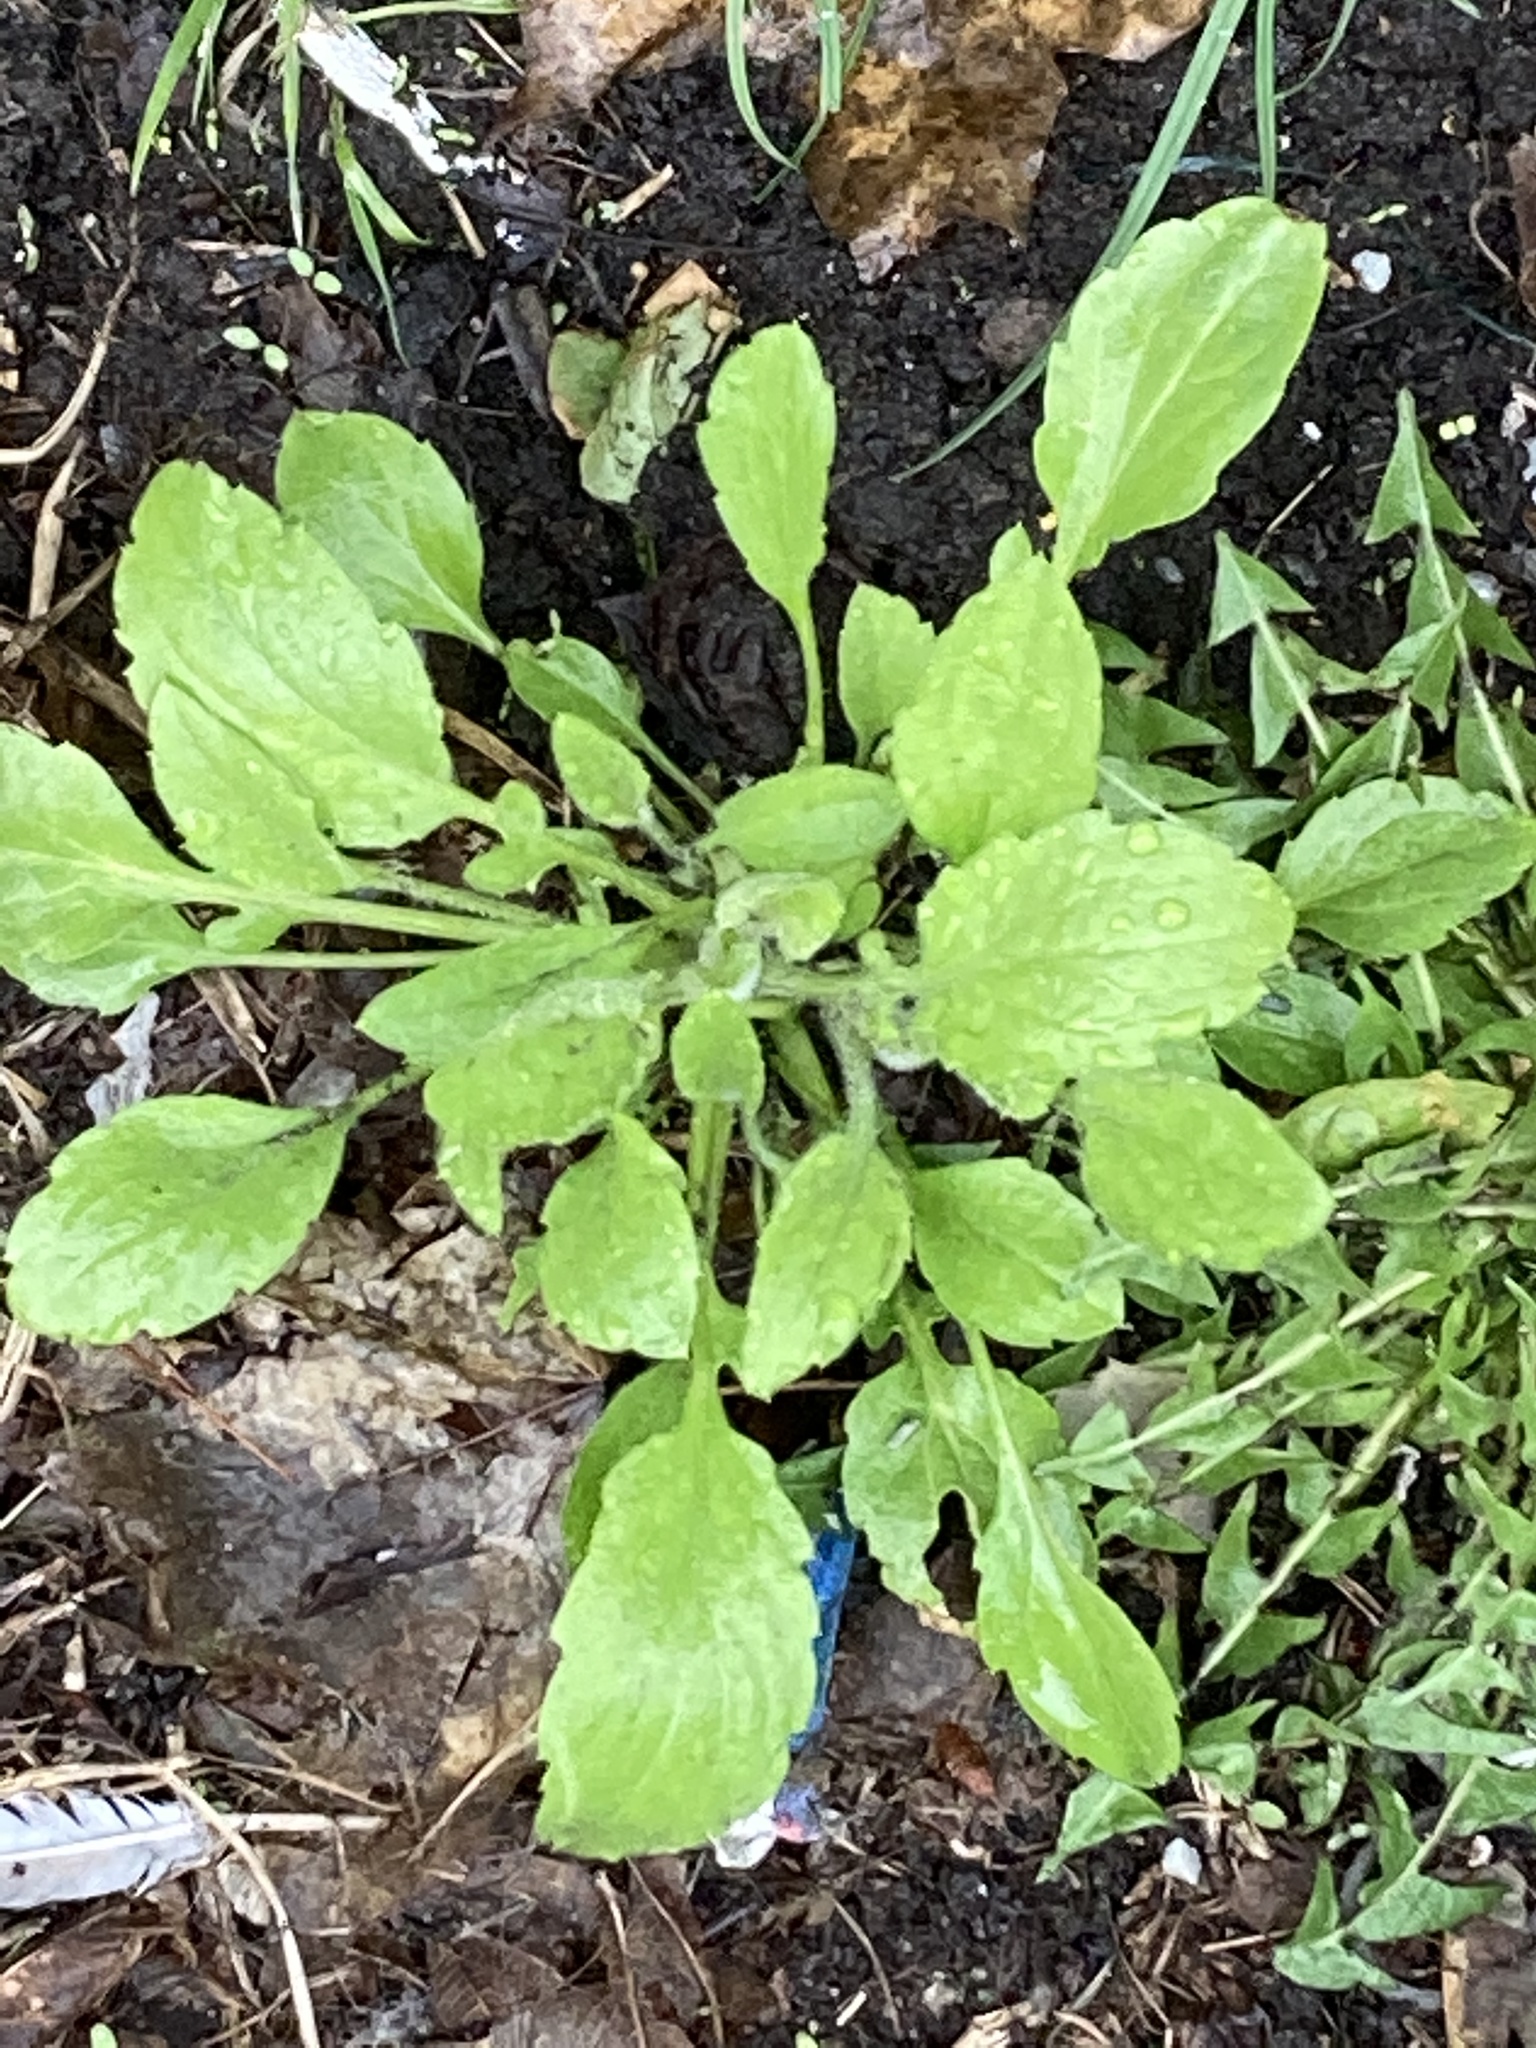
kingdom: Plantae
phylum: Tracheophyta
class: Magnoliopsida
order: Asterales
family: Asteraceae
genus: Erigeron
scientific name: Erigeron annuus
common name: Tall fleabane
